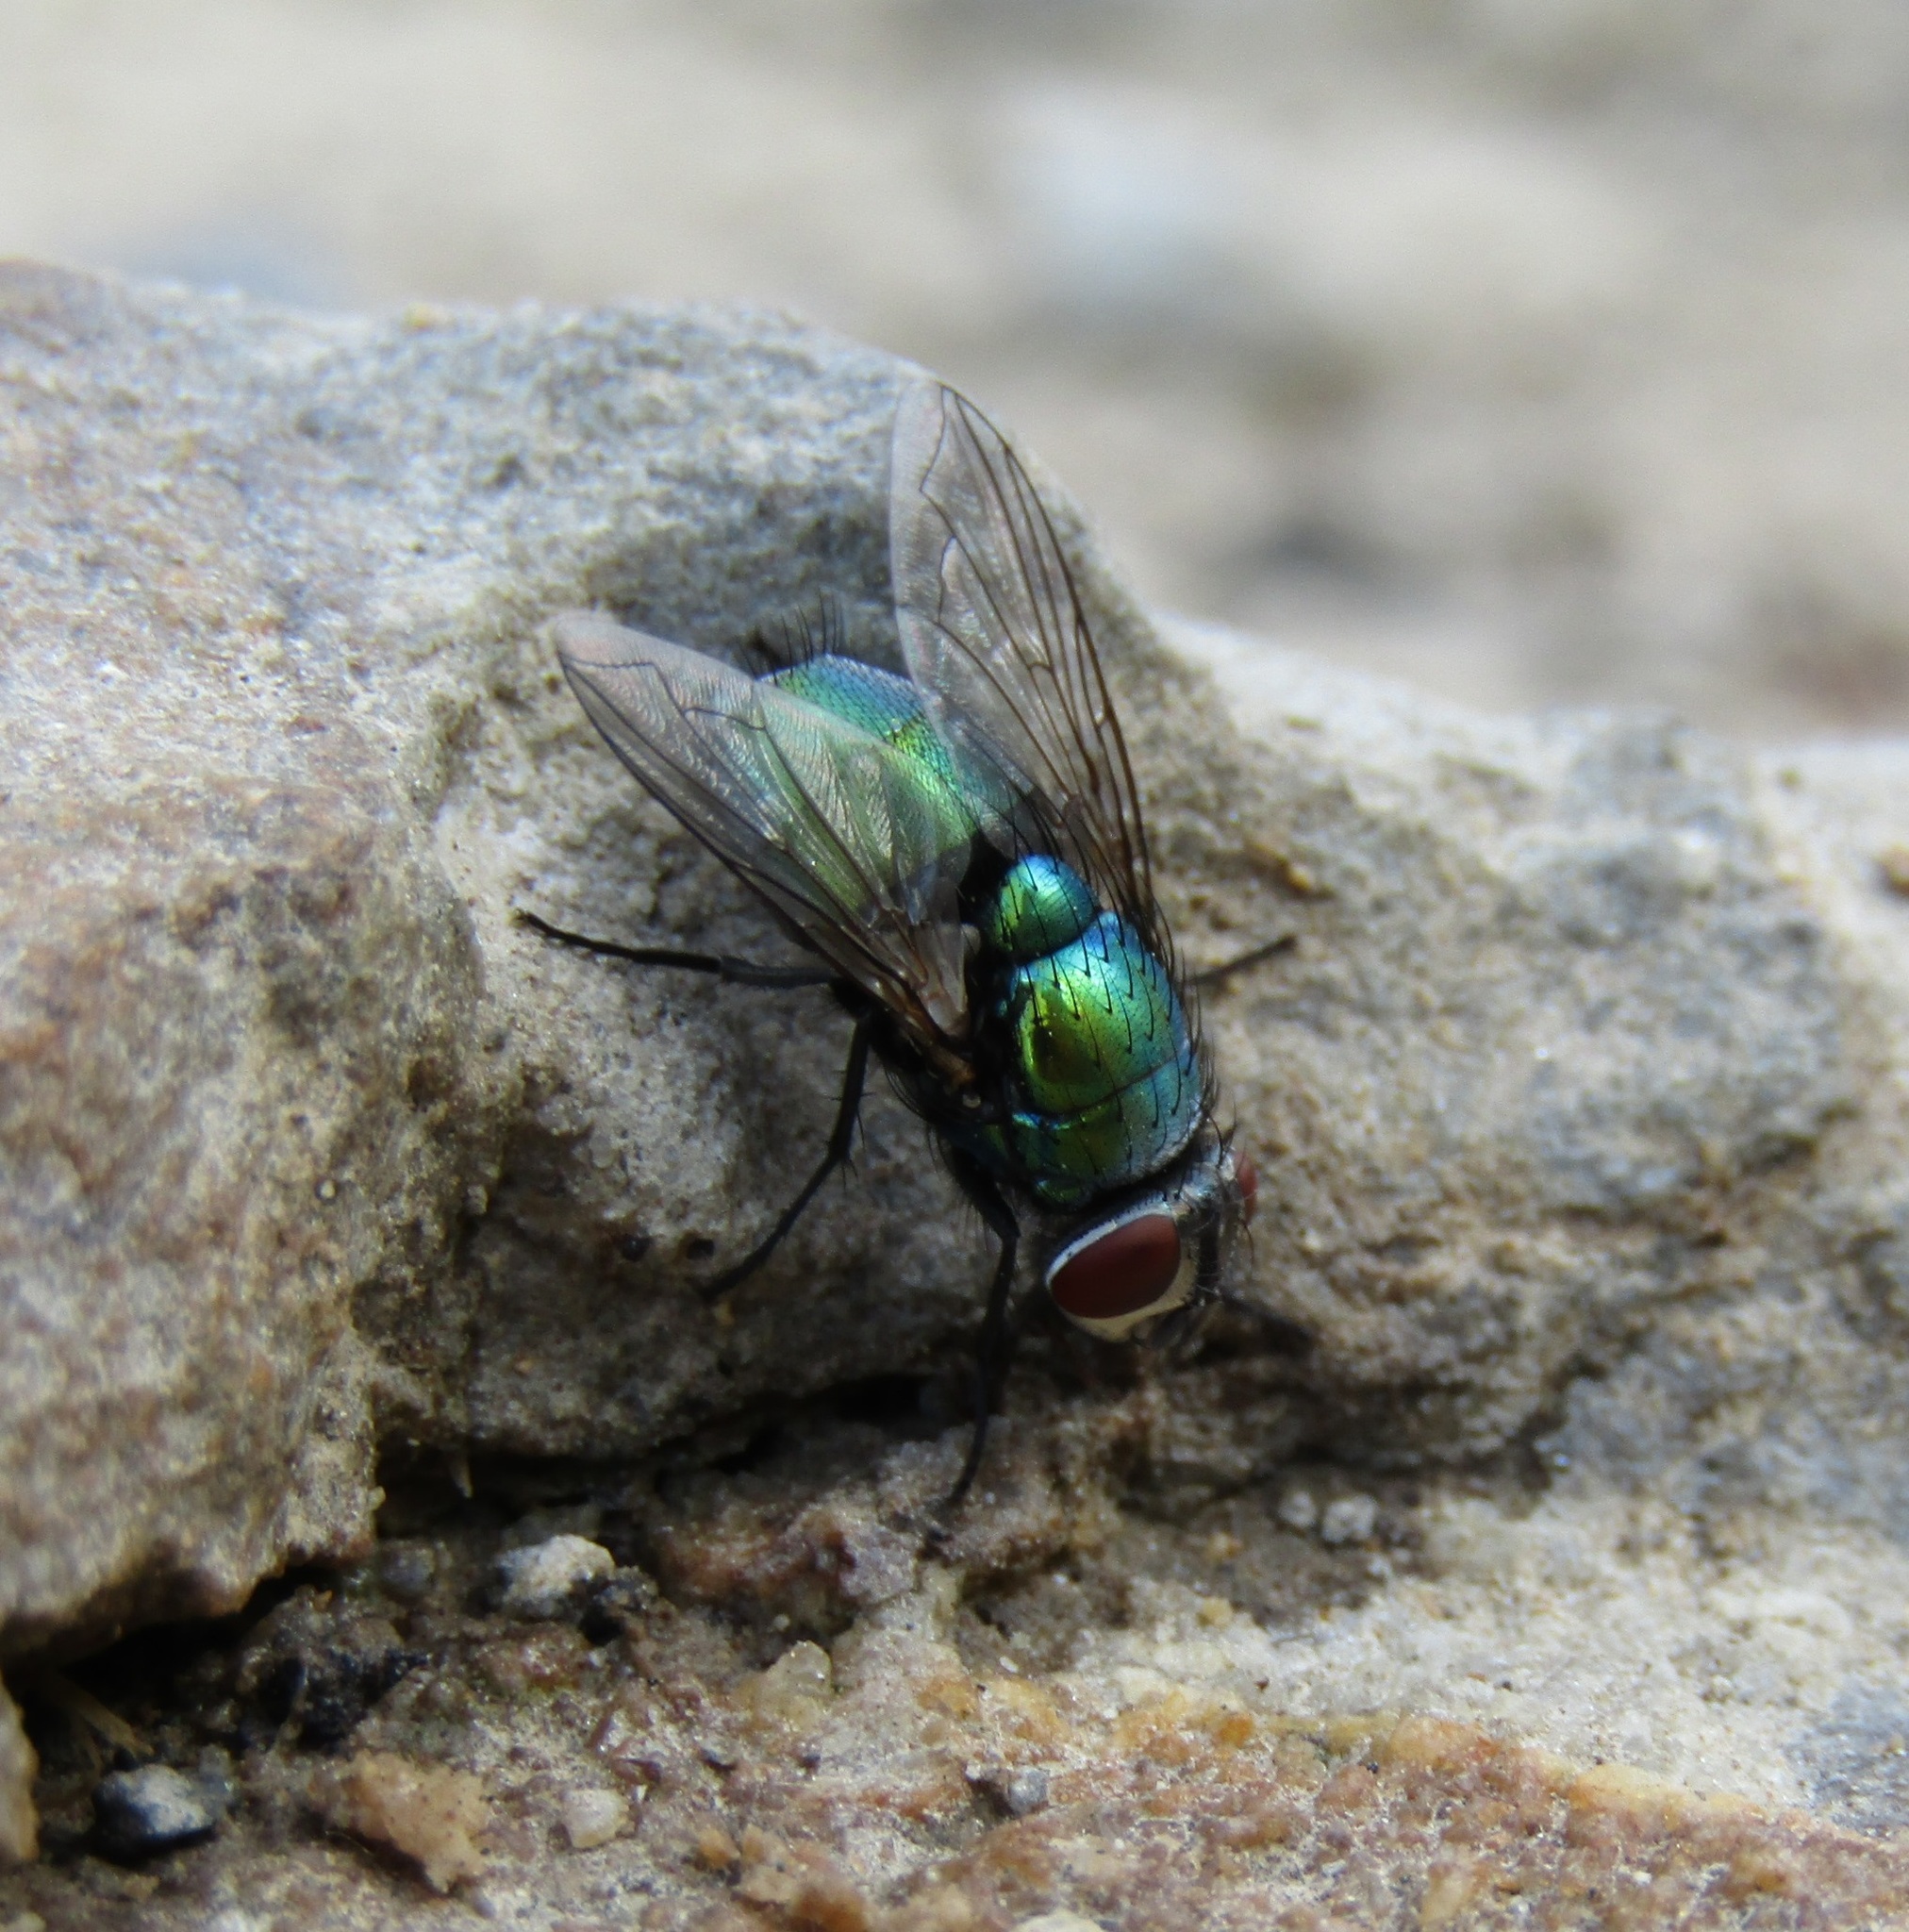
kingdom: Animalia
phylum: Arthropoda
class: Insecta
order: Diptera
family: Calliphoridae
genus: Lucilia
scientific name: Lucilia sericata
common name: Blow fly
